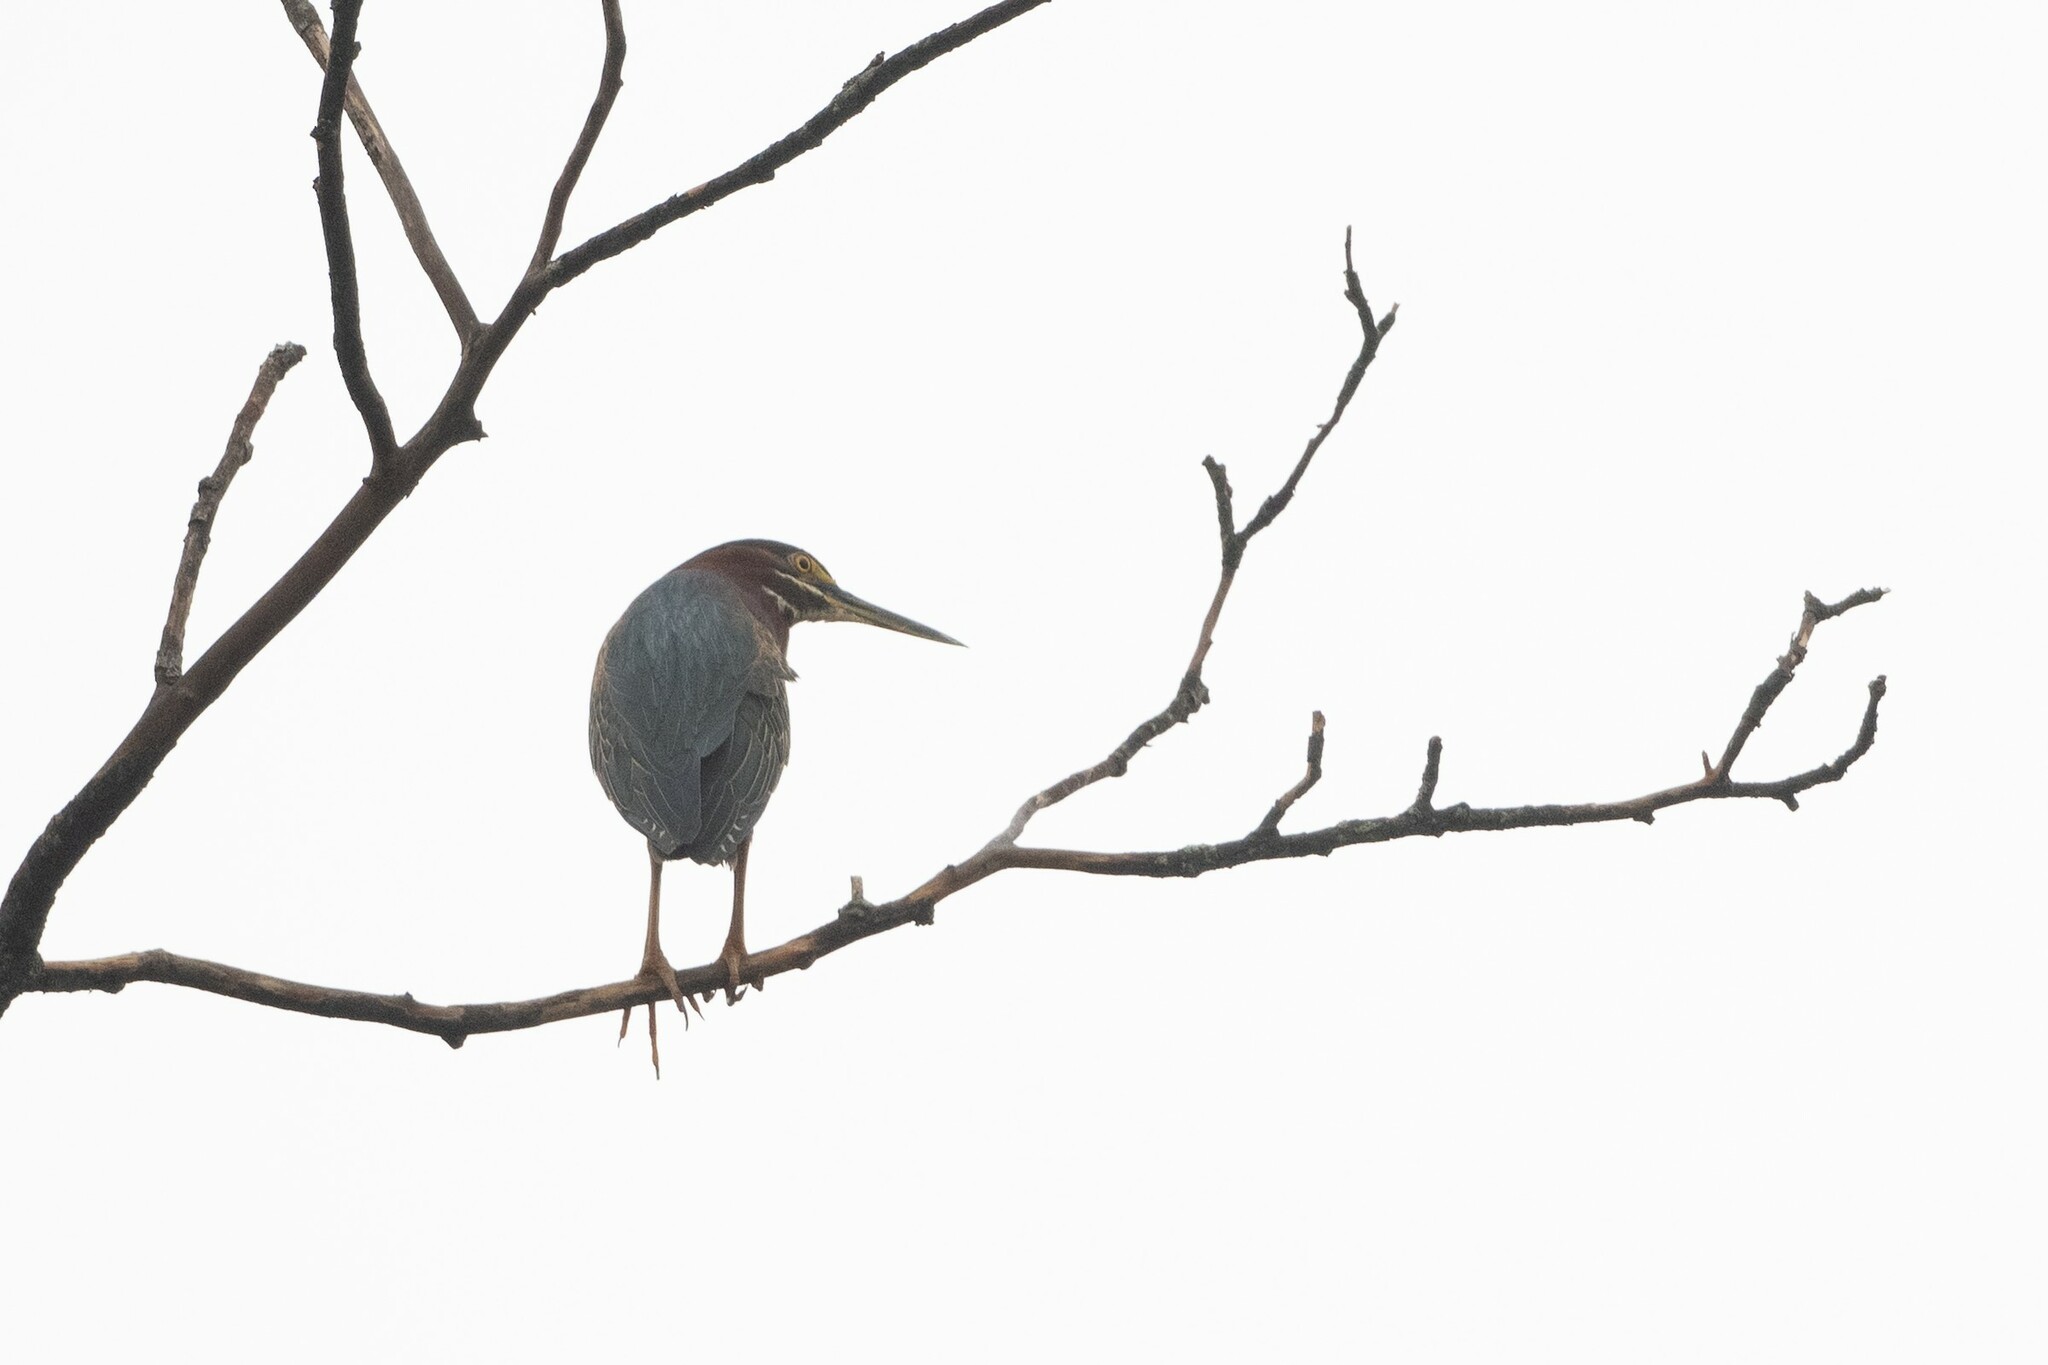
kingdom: Animalia
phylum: Chordata
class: Aves
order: Pelecaniformes
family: Ardeidae
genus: Butorides
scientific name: Butorides virescens
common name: Green heron
